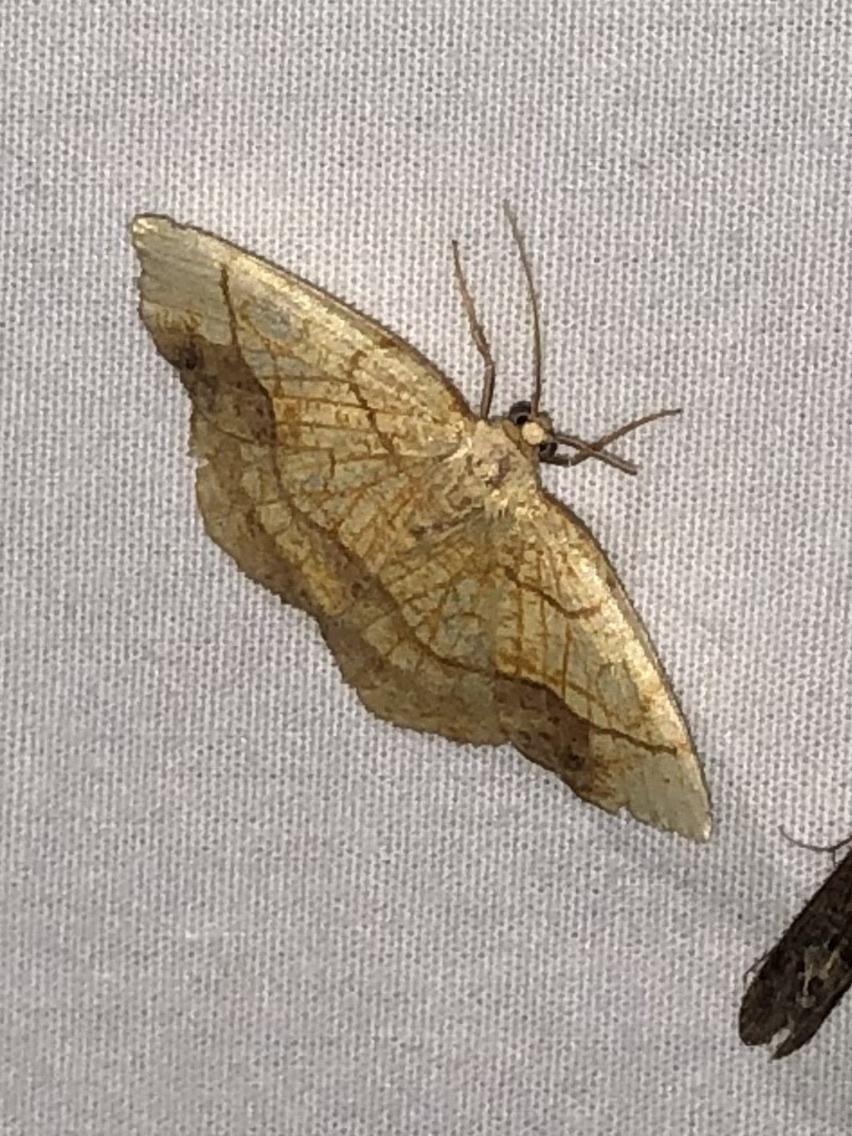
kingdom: Animalia
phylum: Arthropoda
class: Insecta
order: Lepidoptera
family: Geometridae
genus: Nematocampa
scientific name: Nematocampa resistaria
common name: Horned spanworm moth
